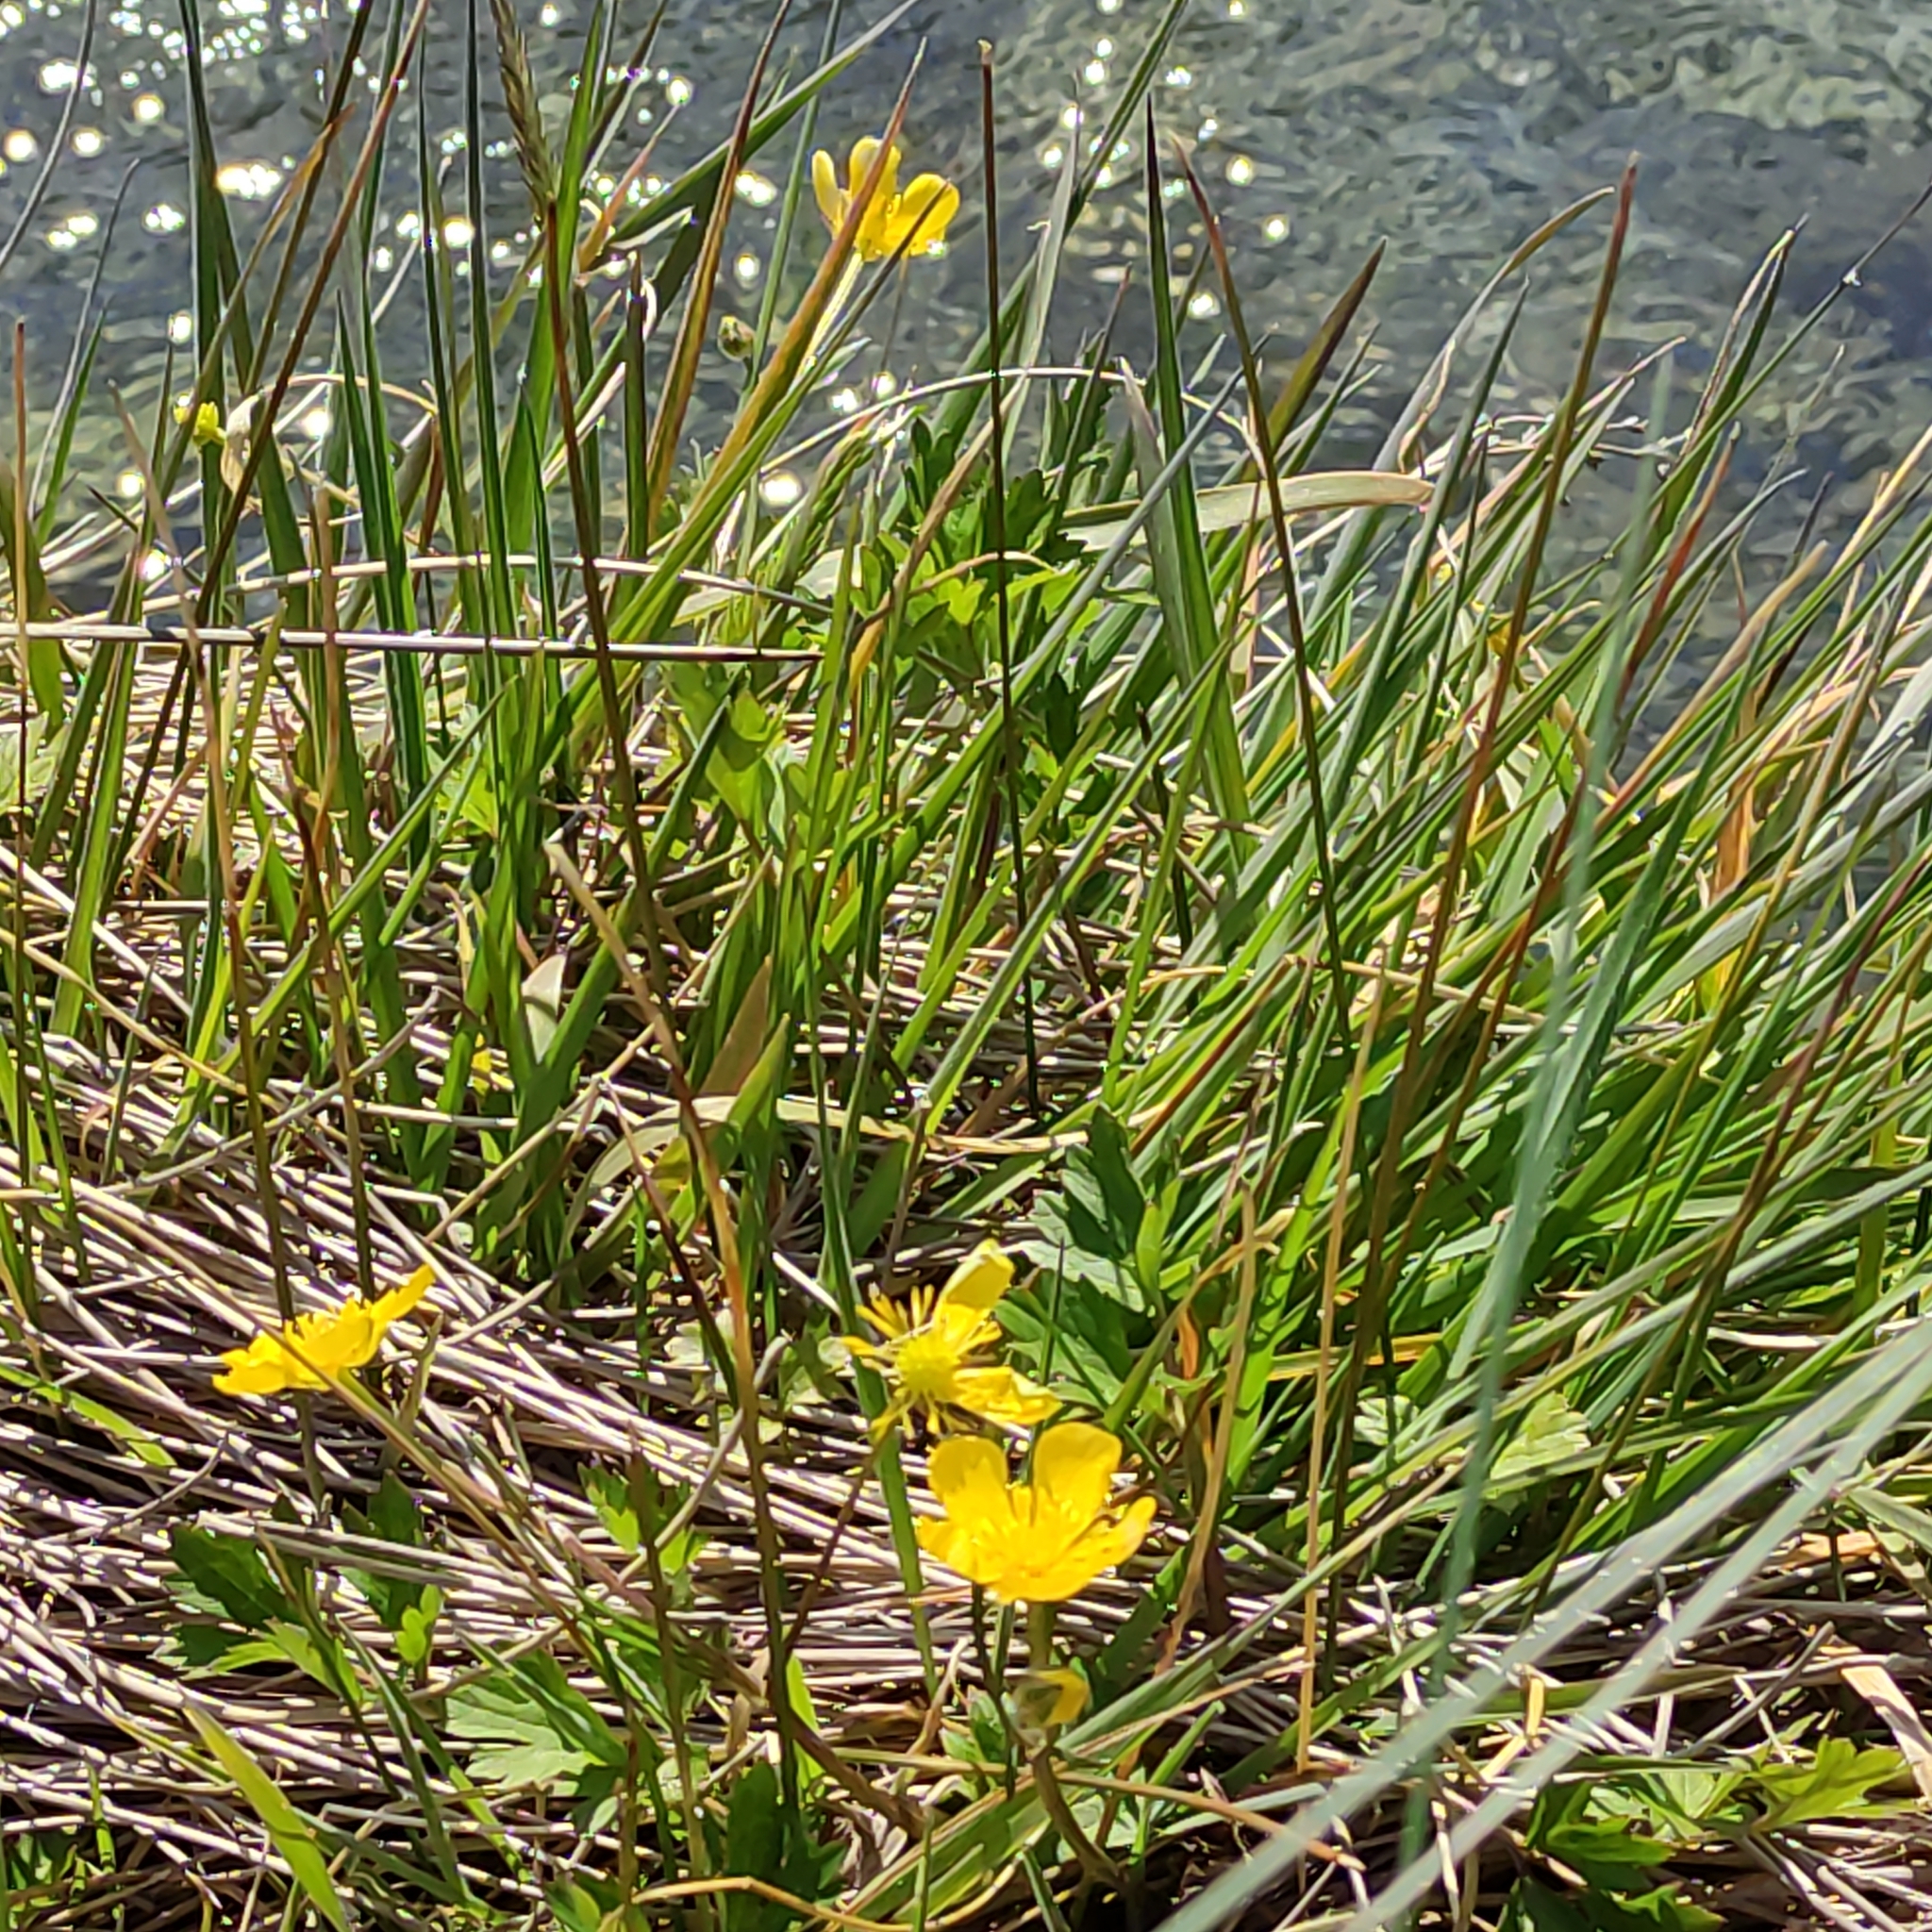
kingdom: Plantae
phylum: Tracheophyta
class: Magnoliopsida
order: Ranunculales
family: Ranunculaceae
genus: Ranunculus
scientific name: Ranunculus repens
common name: Creeping buttercup
